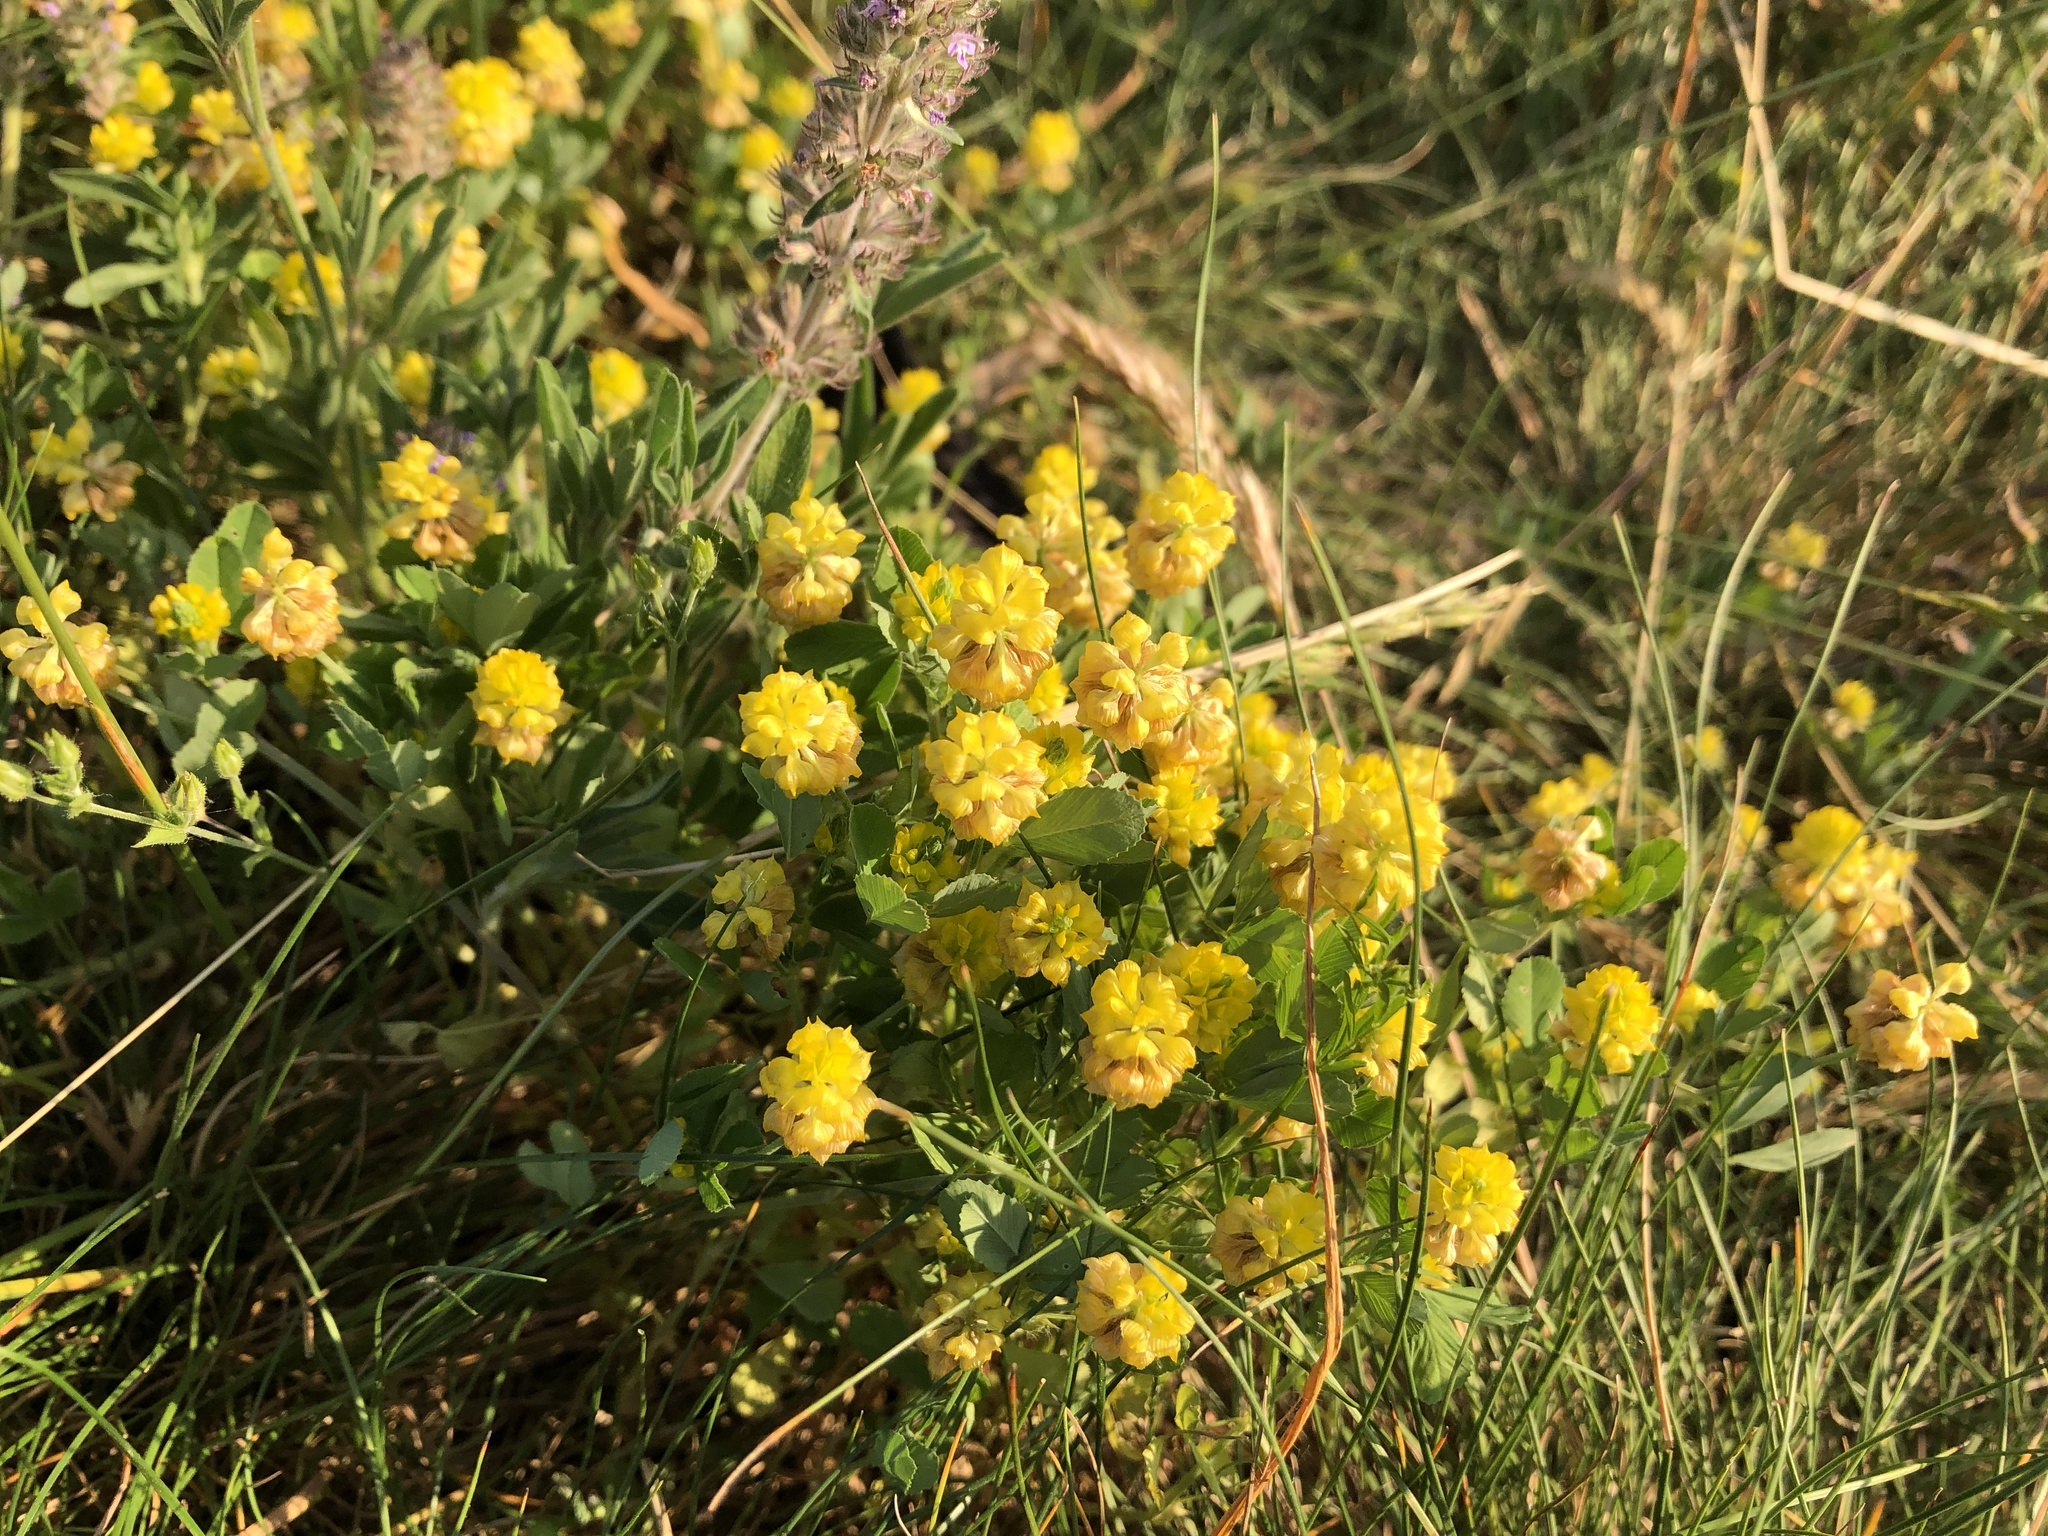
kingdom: Plantae
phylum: Tracheophyta
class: Magnoliopsida
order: Fabales
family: Fabaceae
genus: Trifolium
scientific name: Trifolium campestre
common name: Field clover
